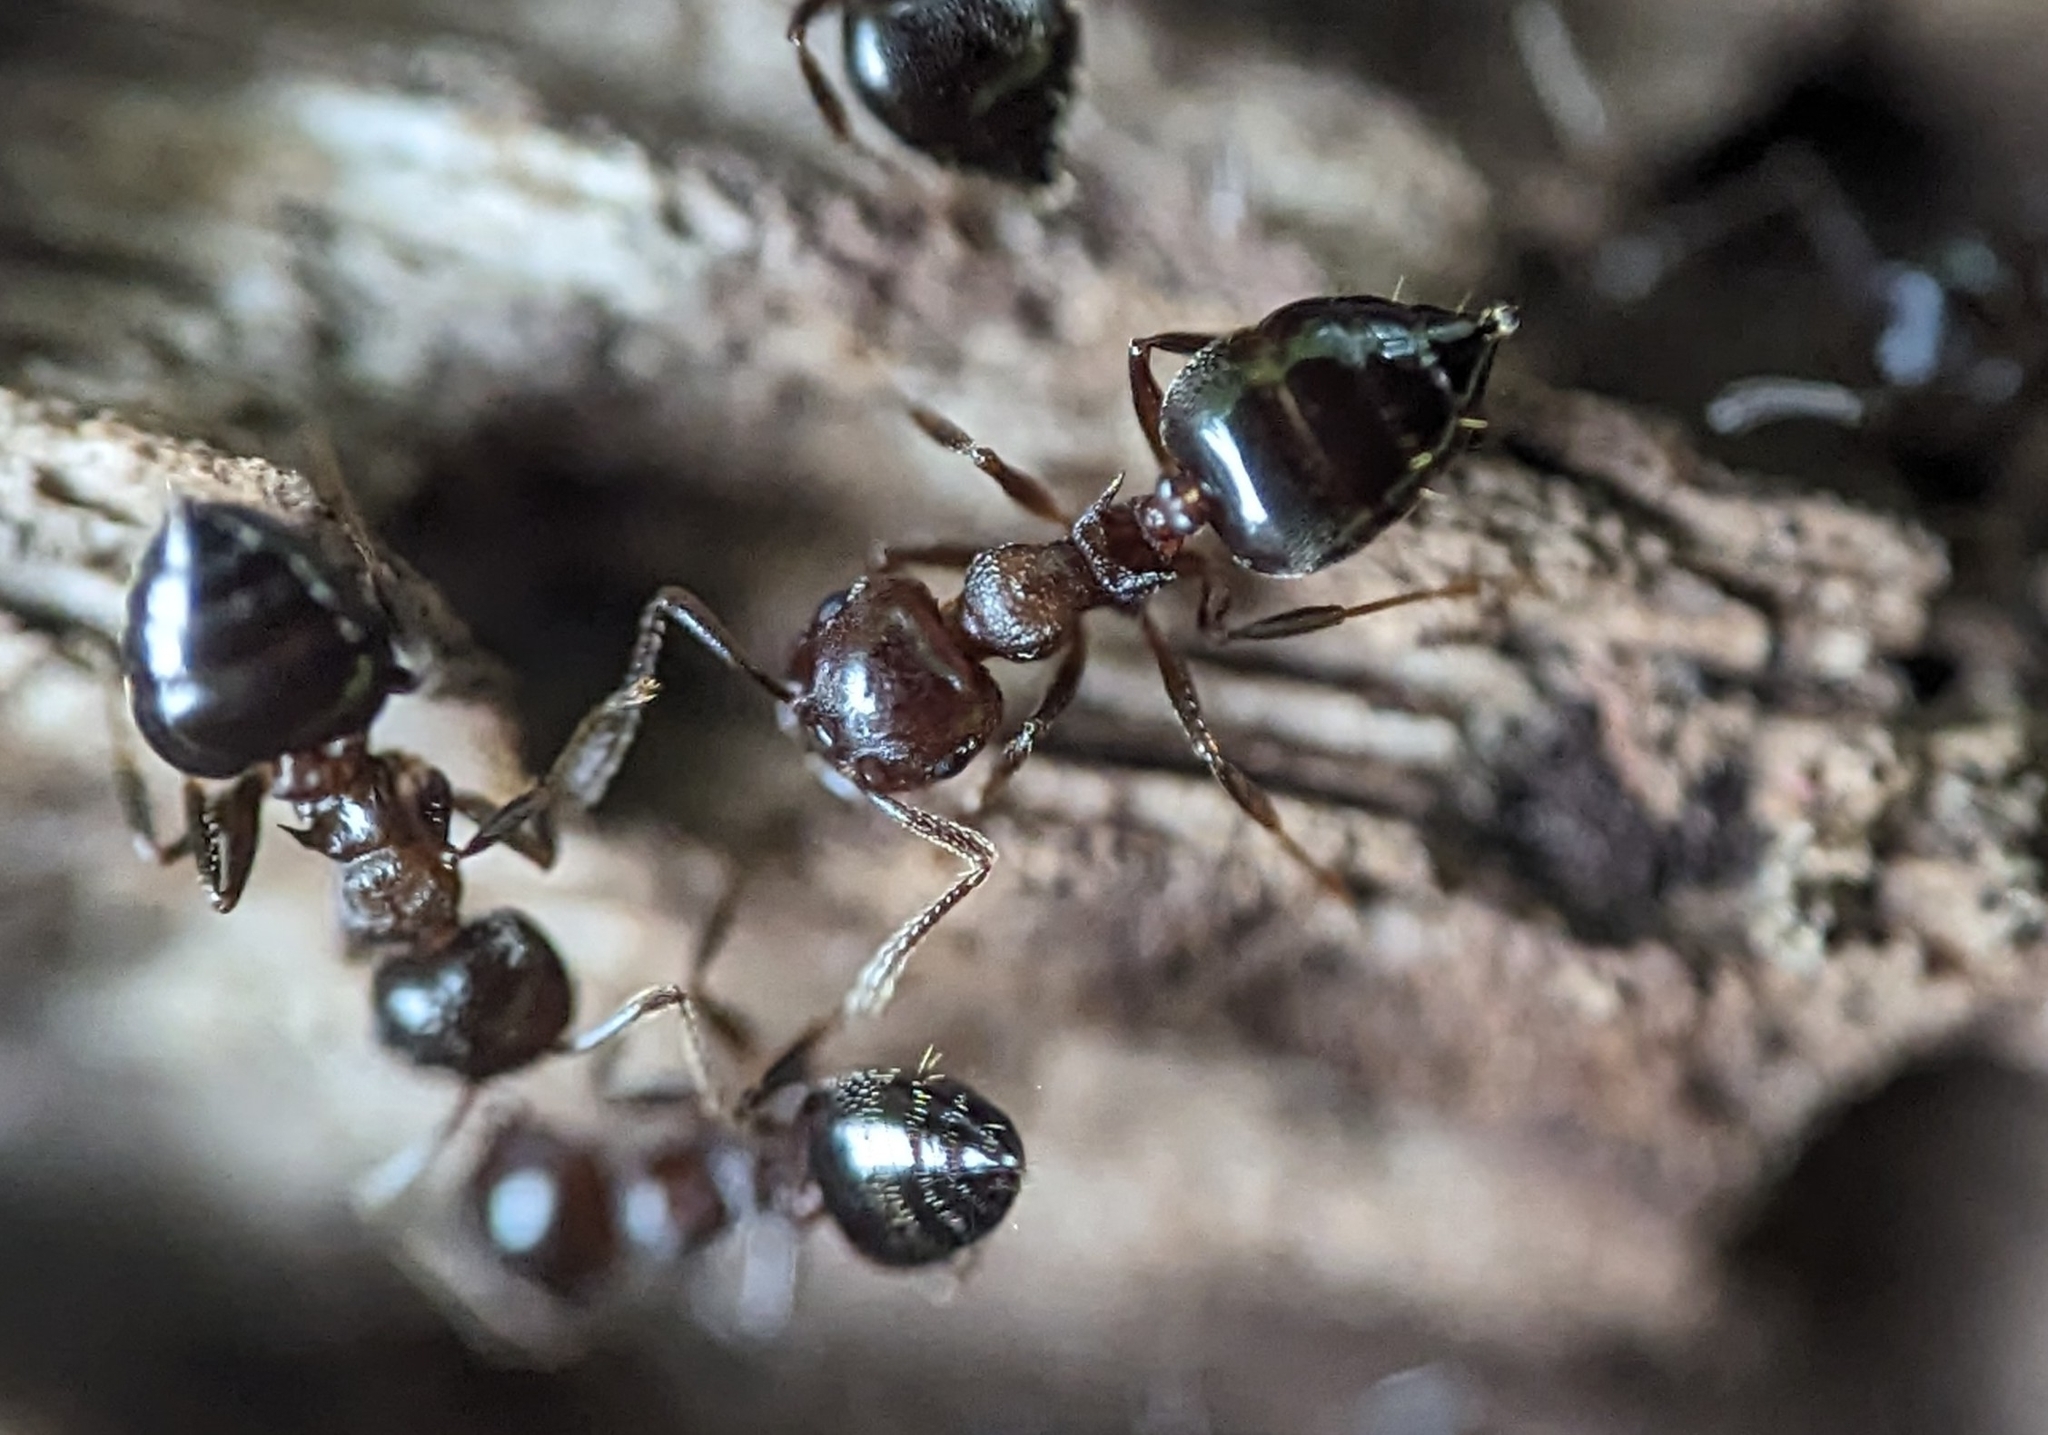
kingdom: Animalia
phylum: Arthropoda
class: Insecta
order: Hymenoptera
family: Formicidae
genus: Crematogaster
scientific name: Crematogaster cerasi
